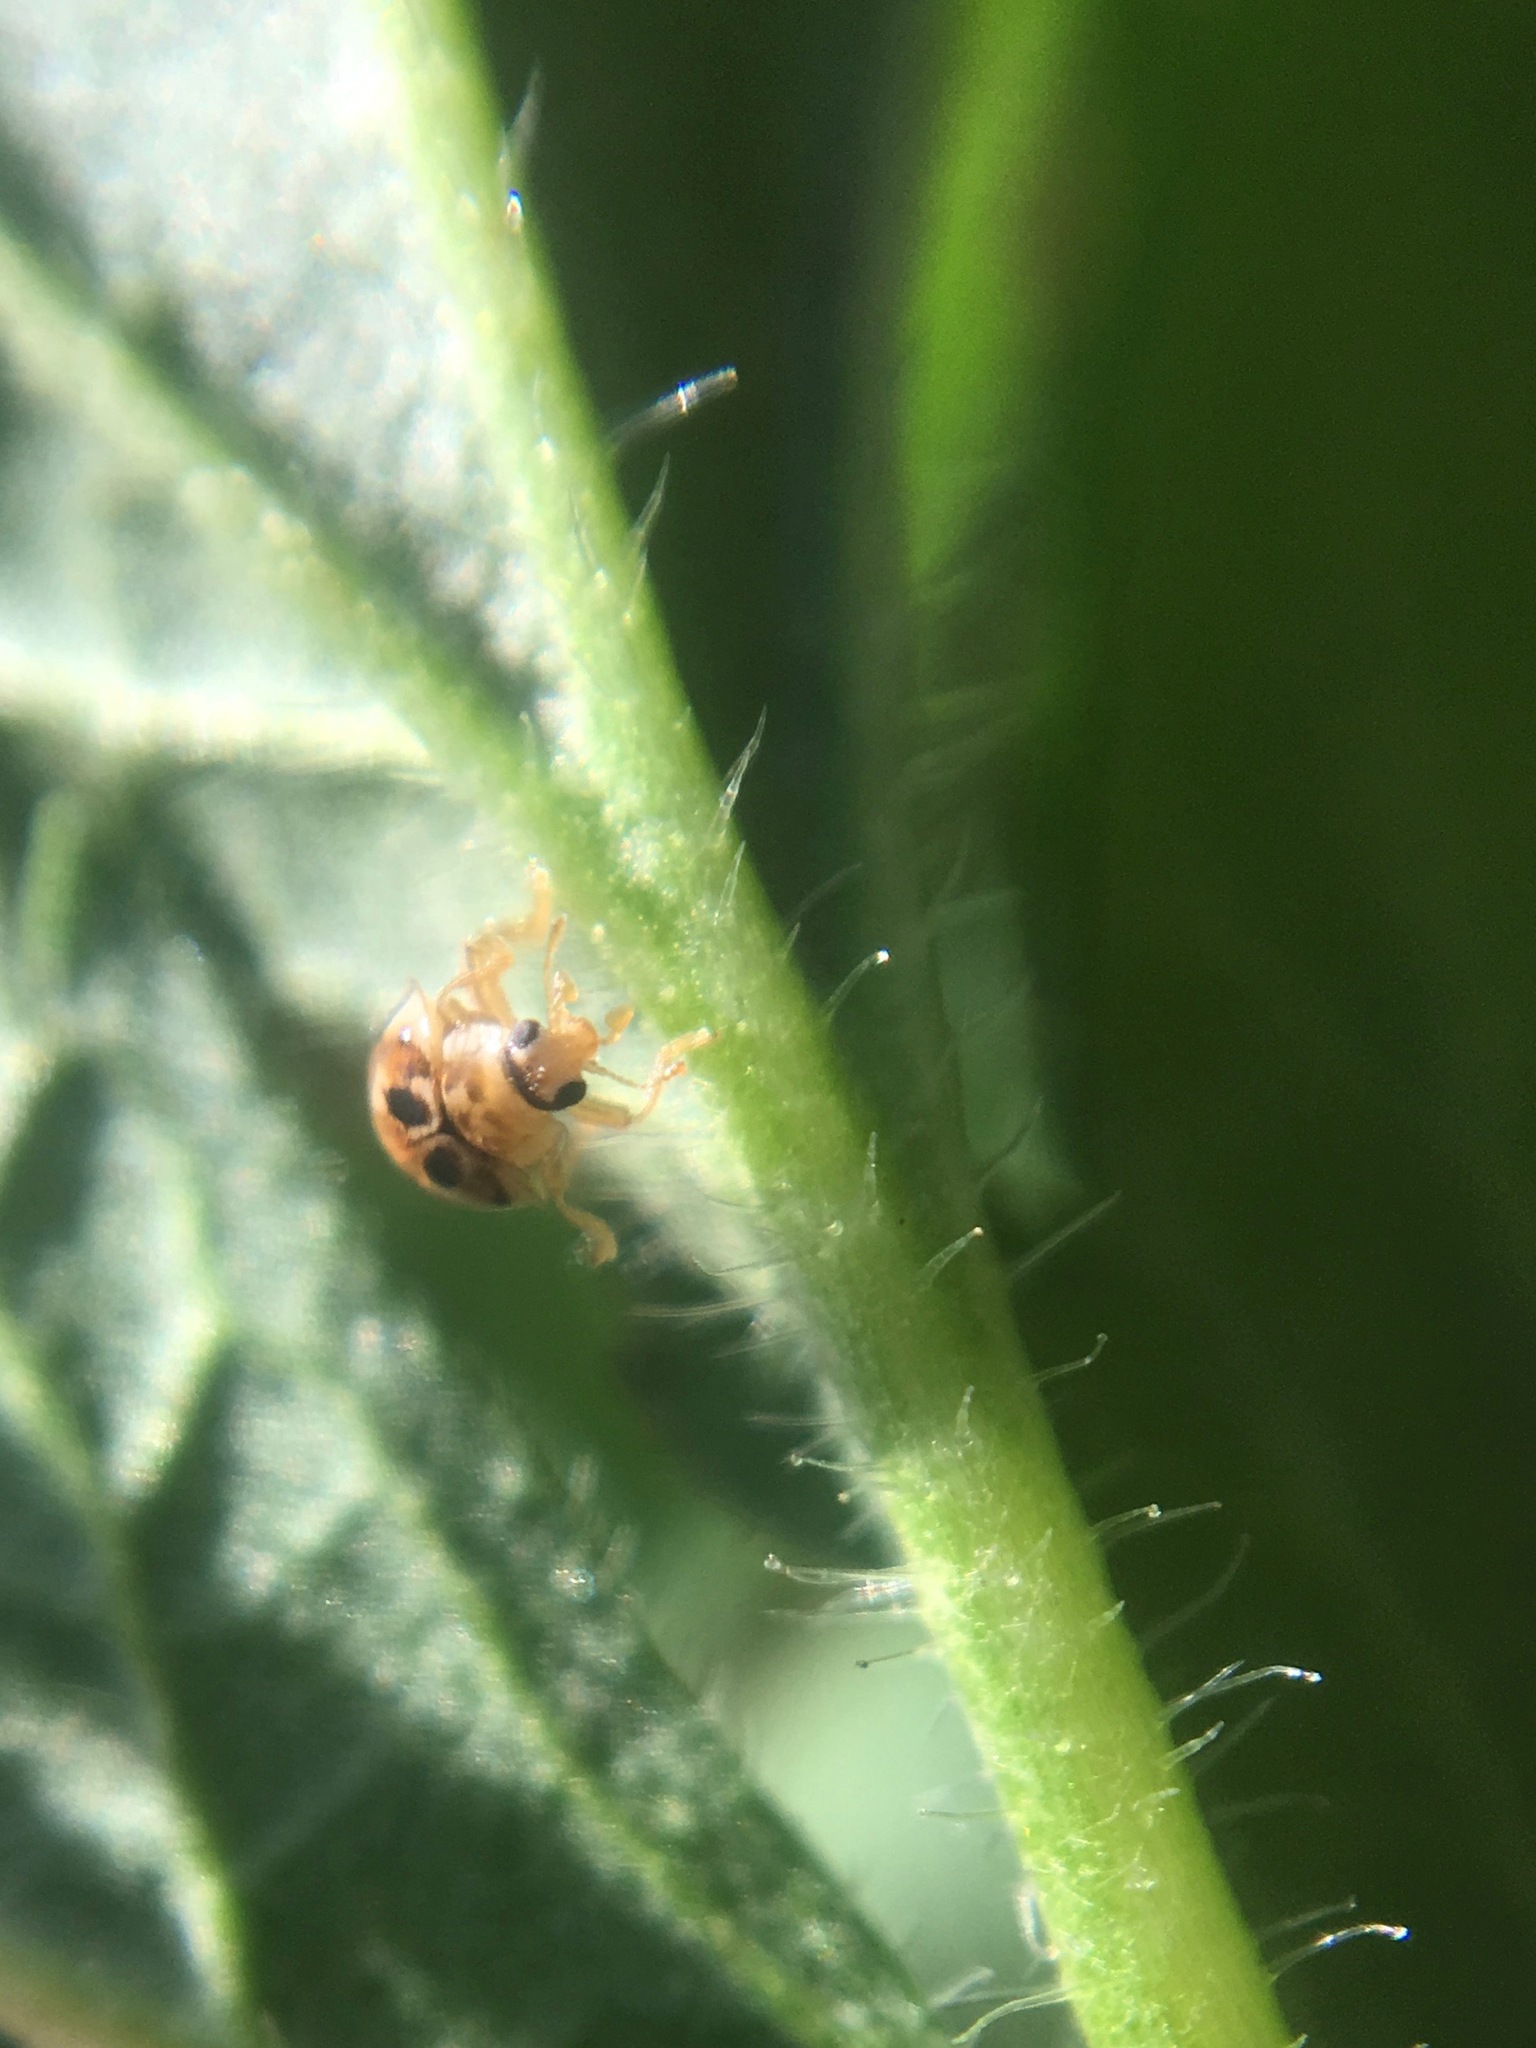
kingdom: Animalia
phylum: Arthropoda
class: Insecta
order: Coleoptera
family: Coccinellidae
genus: Psyllobora
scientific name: Psyllobora vigintimaculata
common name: Ladybird beetle
